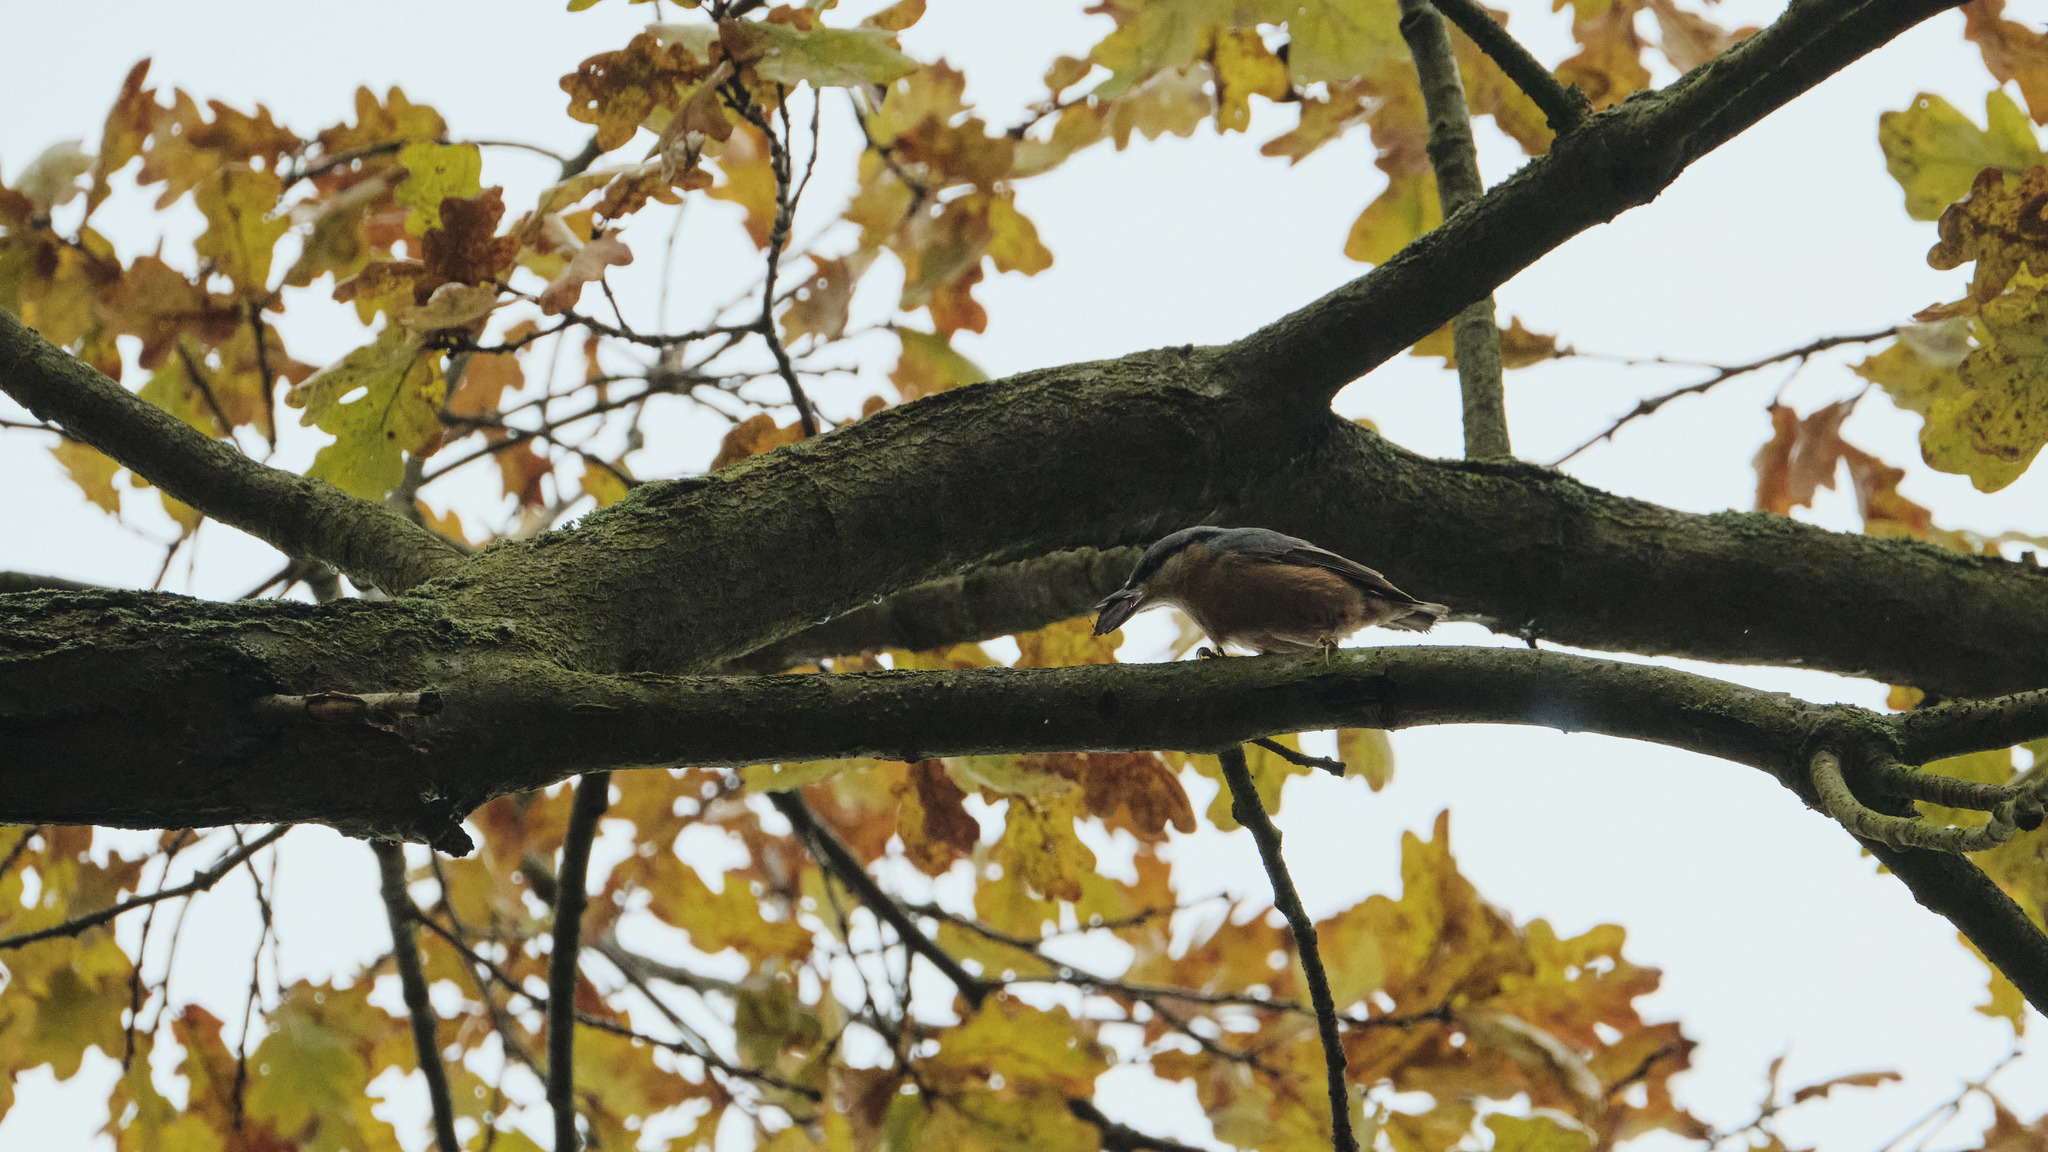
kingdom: Animalia
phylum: Chordata
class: Aves
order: Passeriformes
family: Sittidae
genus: Sitta
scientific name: Sitta europaea
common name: Eurasian nuthatch
